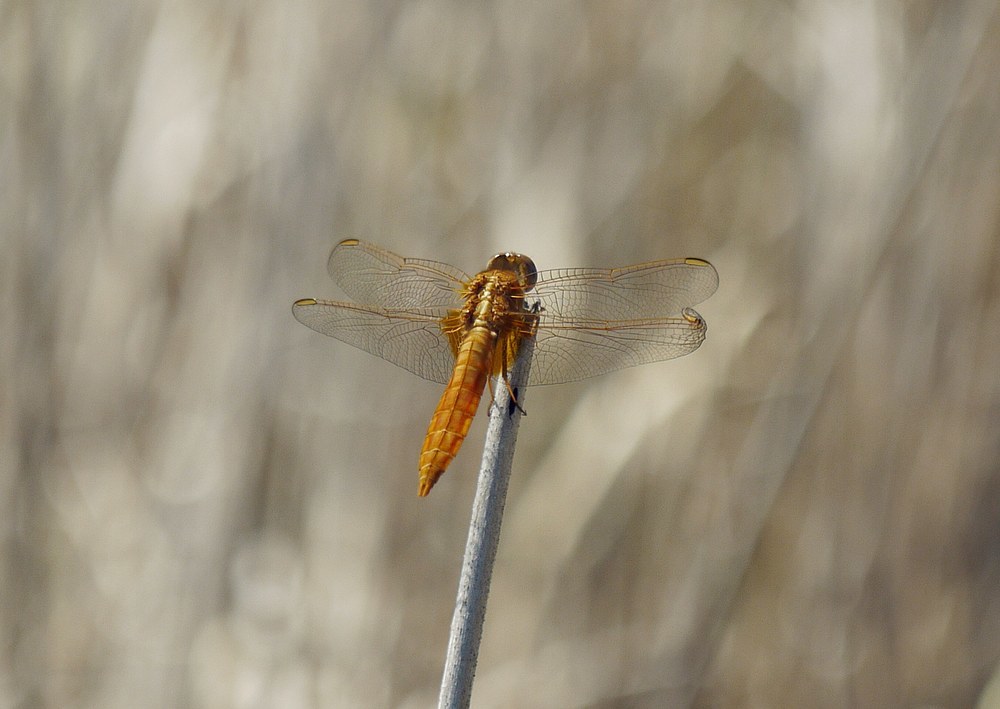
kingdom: Animalia
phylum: Arthropoda
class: Insecta
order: Odonata
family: Libellulidae
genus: Crocothemis
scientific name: Crocothemis erythraea
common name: Scarlet dragonfly
